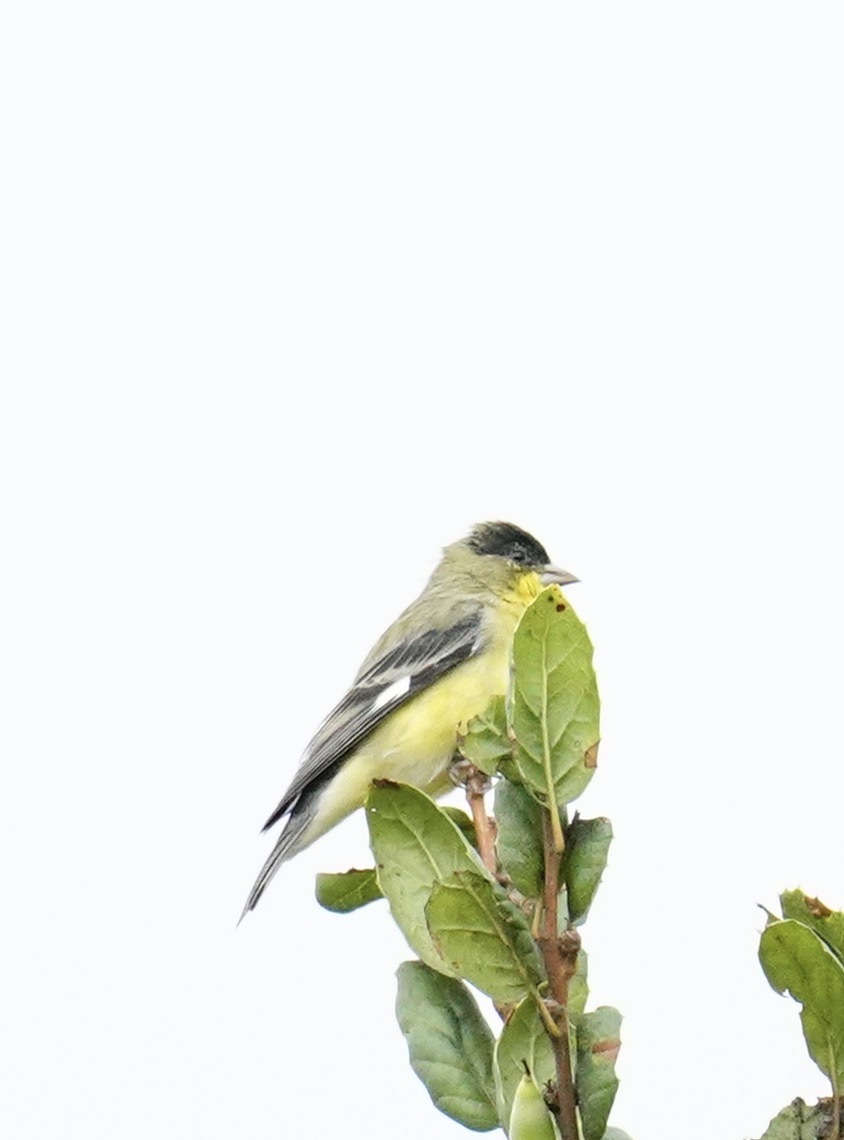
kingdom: Animalia
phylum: Chordata
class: Aves
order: Passeriformes
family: Fringillidae
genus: Spinus
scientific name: Spinus psaltria
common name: Lesser goldfinch
